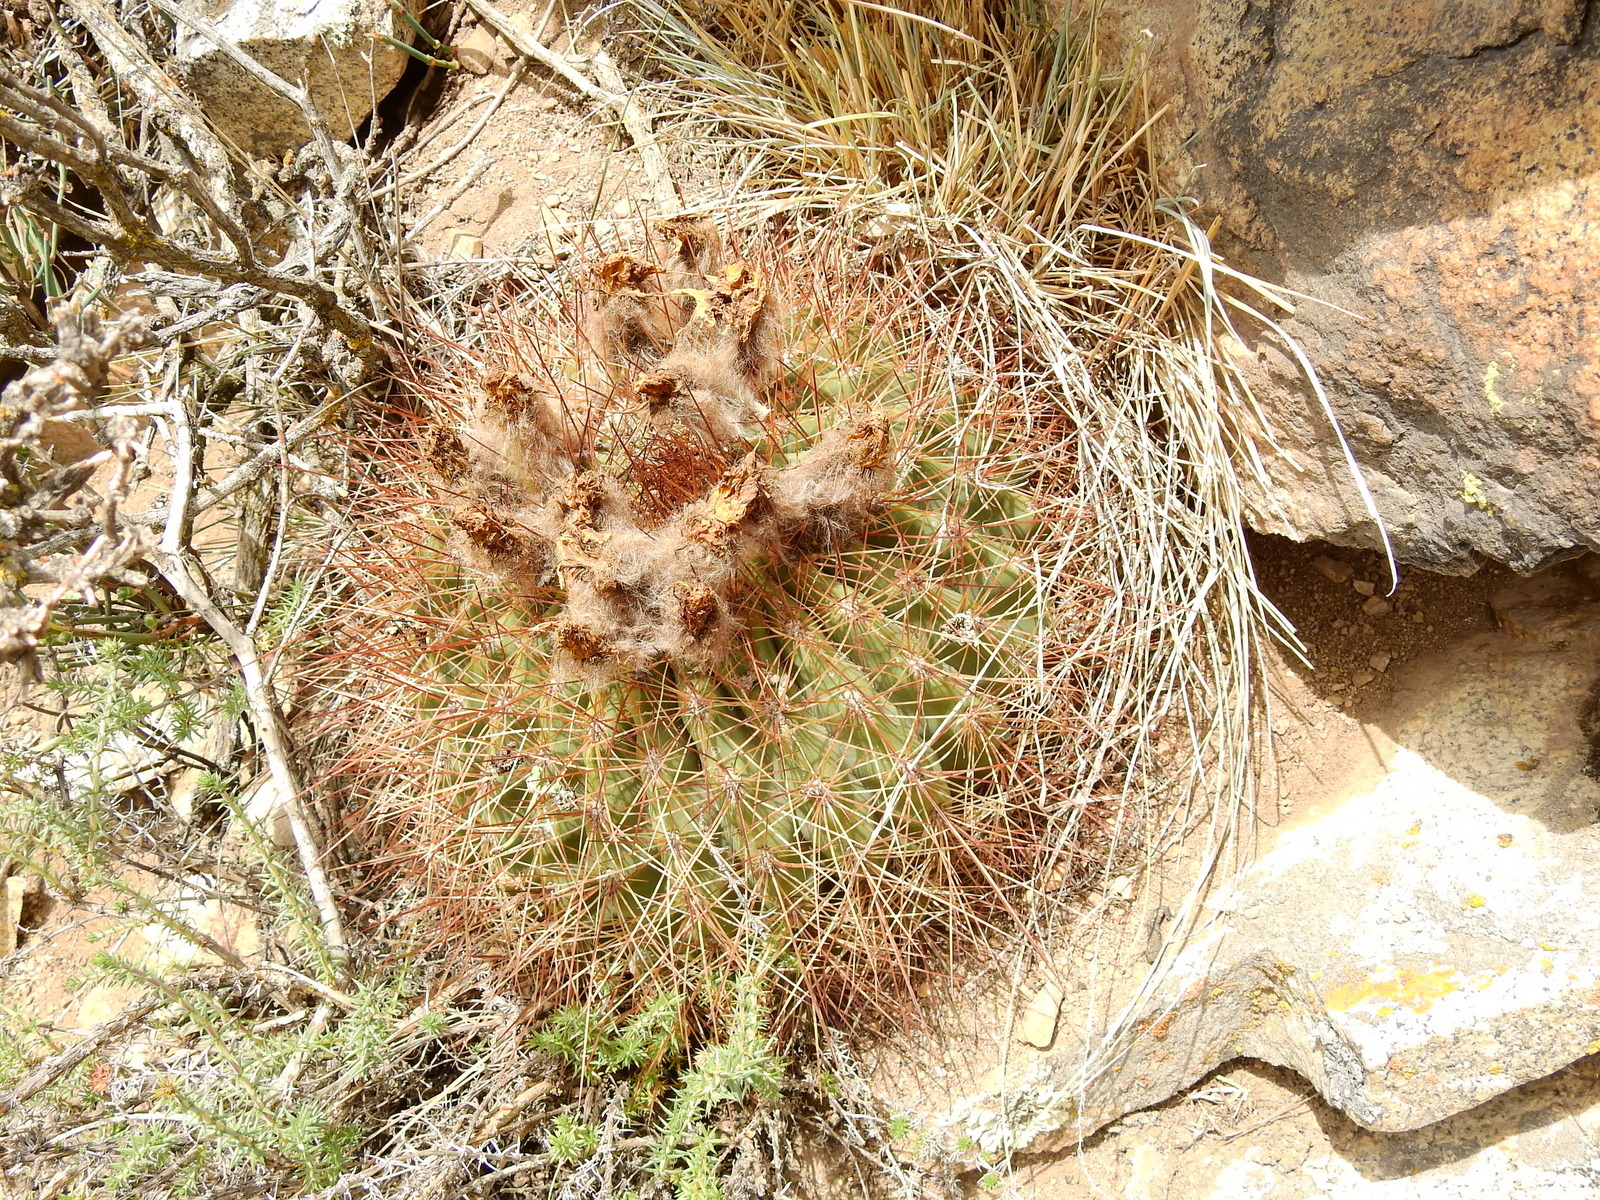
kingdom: Plantae
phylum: Tracheophyta
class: Magnoliopsida
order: Caryophyllales
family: Cactaceae
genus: Soehrensia
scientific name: Soehrensia formosa
